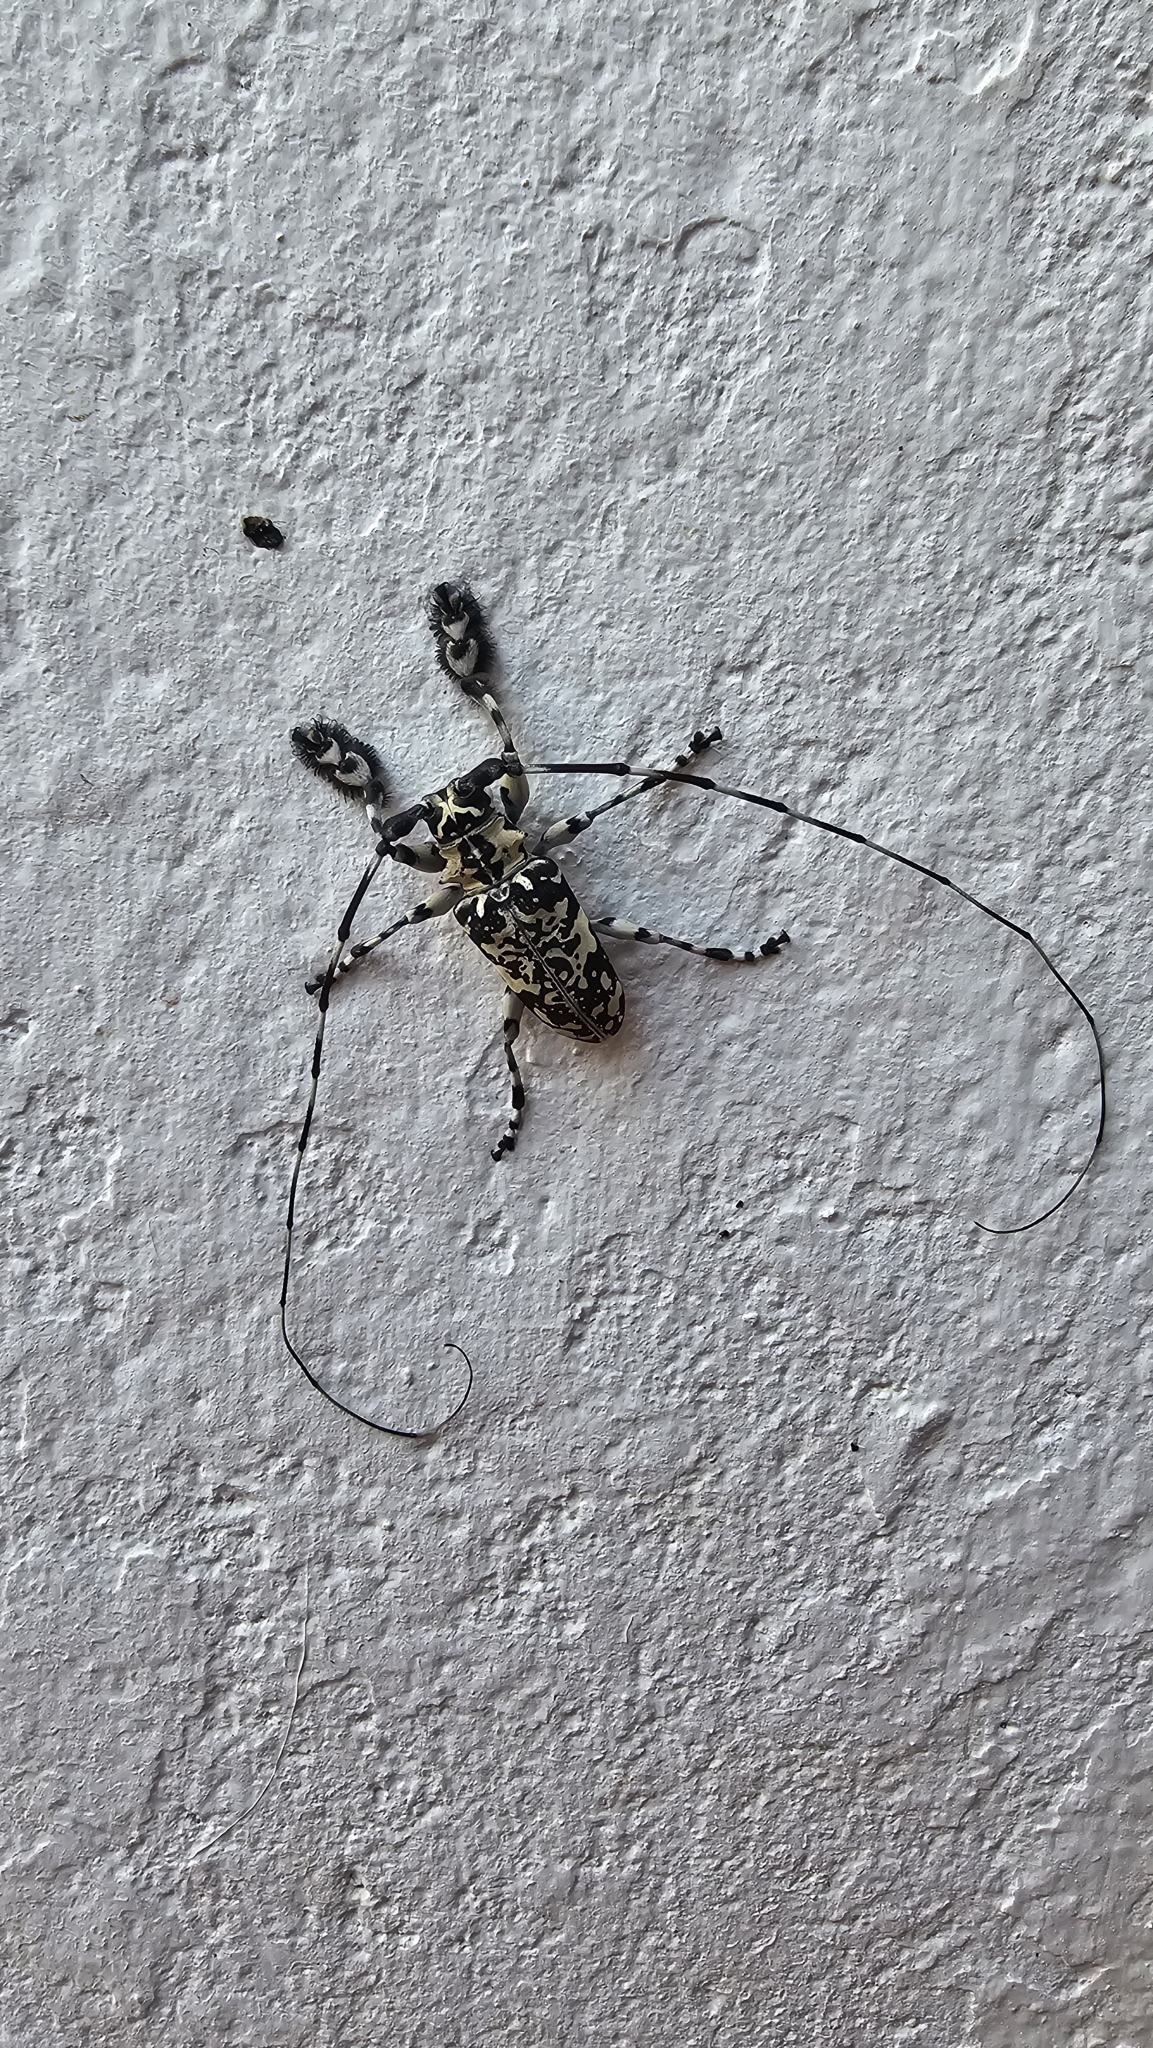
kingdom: Animalia
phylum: Arthropoda
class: Insecta
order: Coleoptera
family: Cerambycidae
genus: Lasiopezus
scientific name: Lasiopezus hiekei
